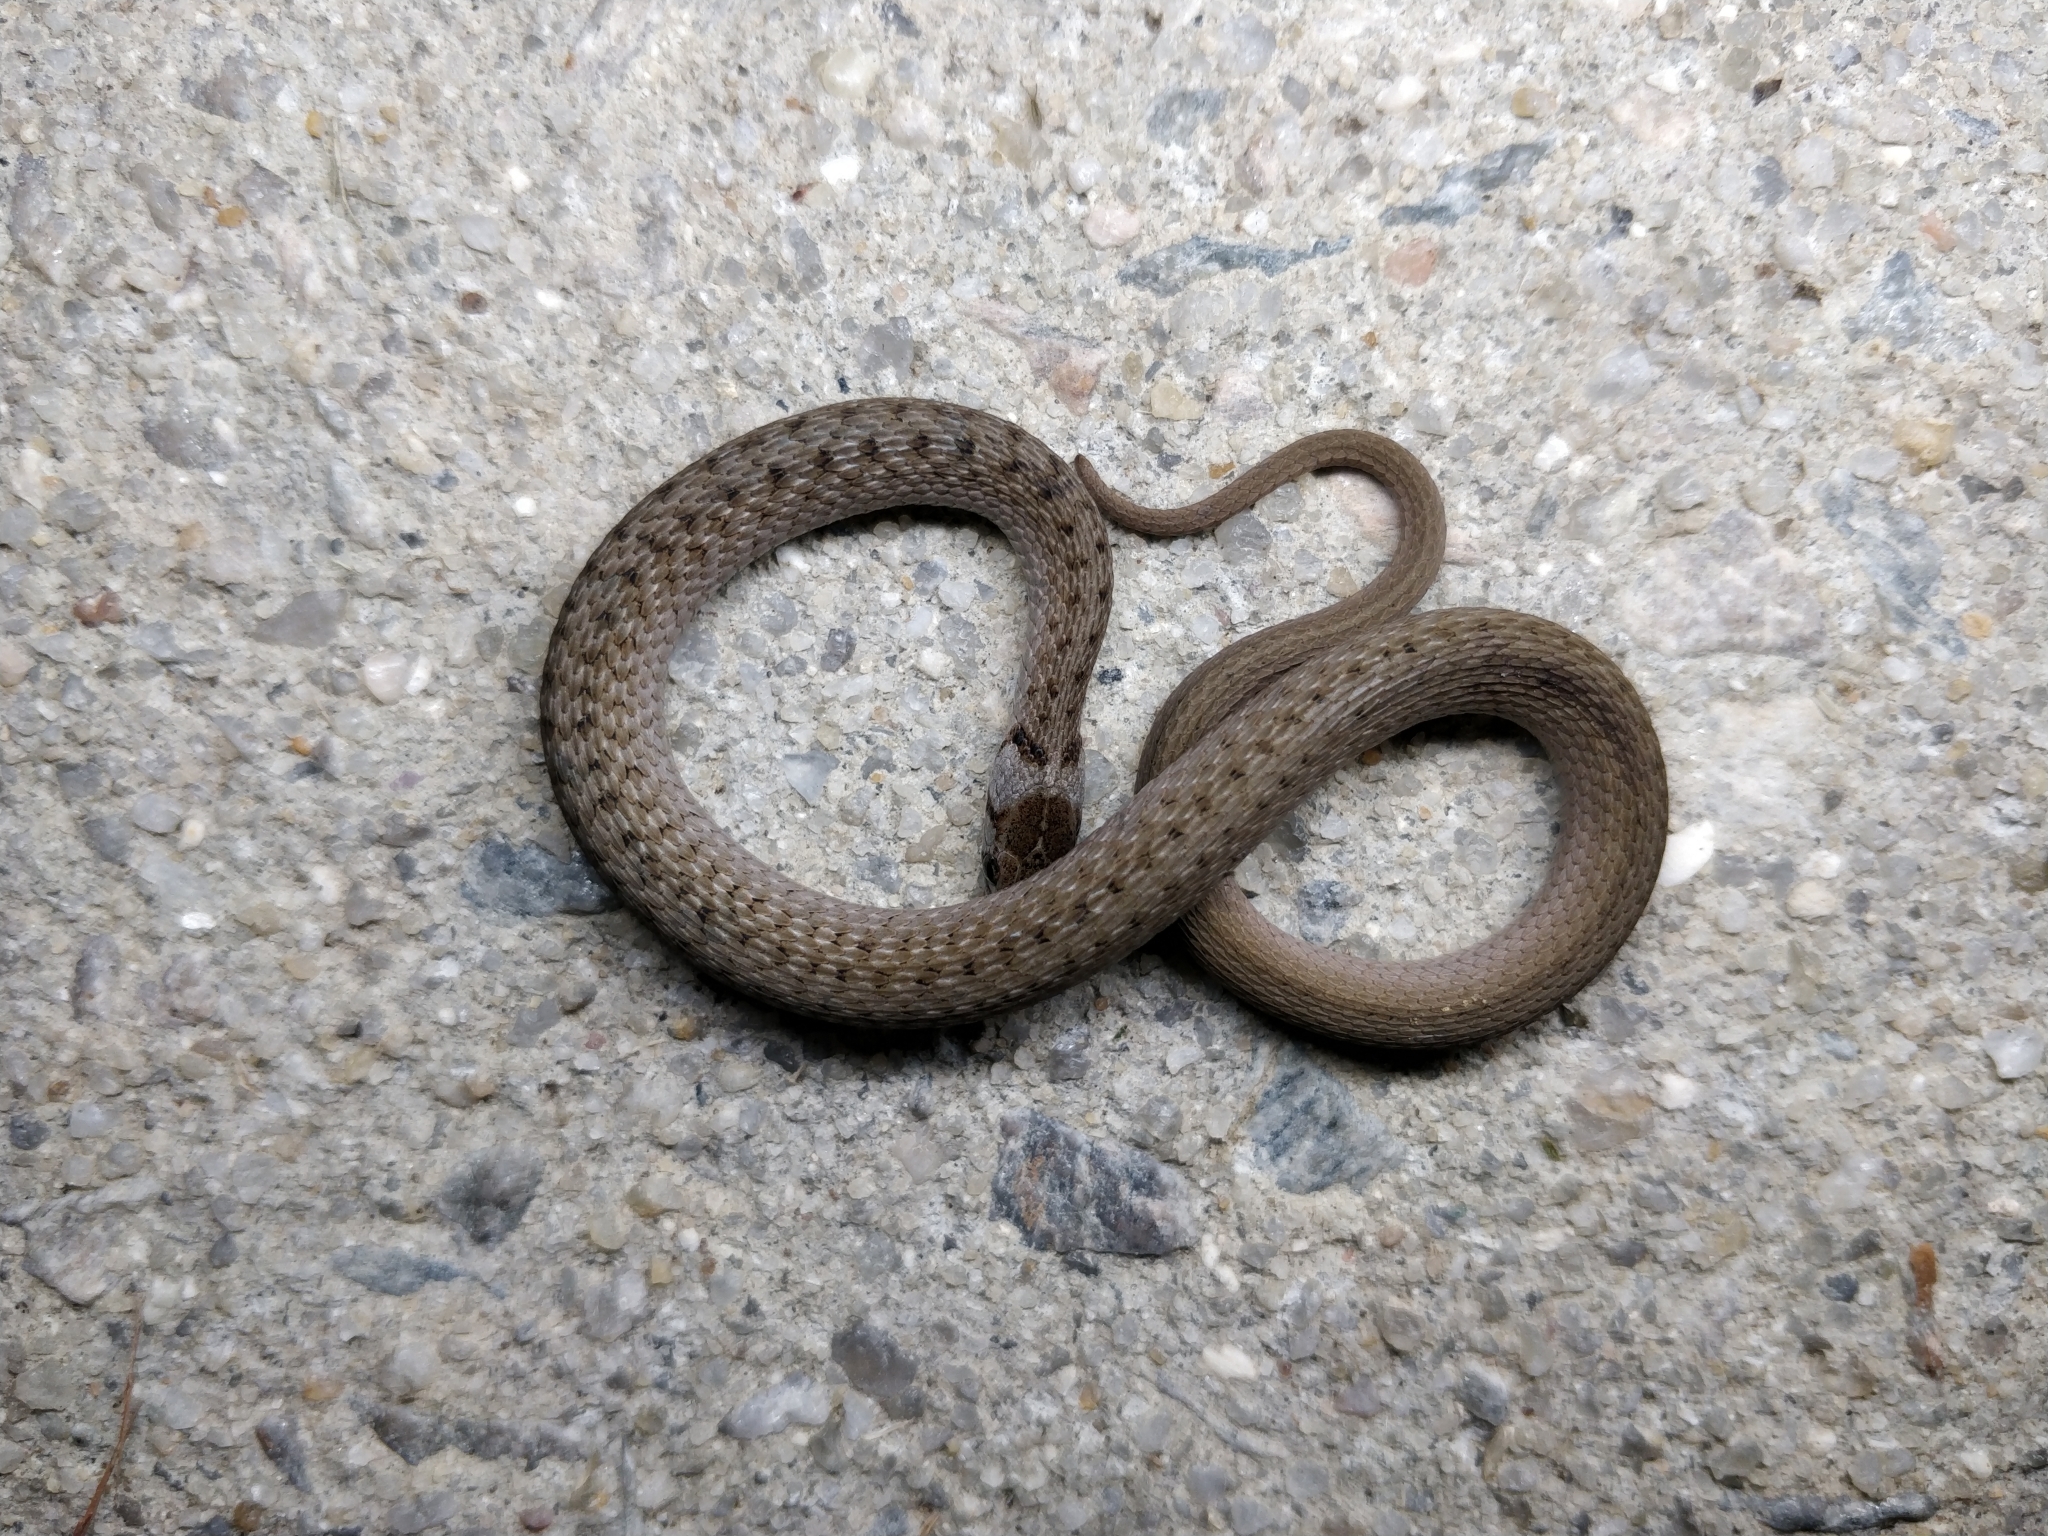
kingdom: Animalia
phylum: Chordata
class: Squamata
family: Colubridae
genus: Storeria
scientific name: Storeria dekayi
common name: (dekay’s) brown snake
